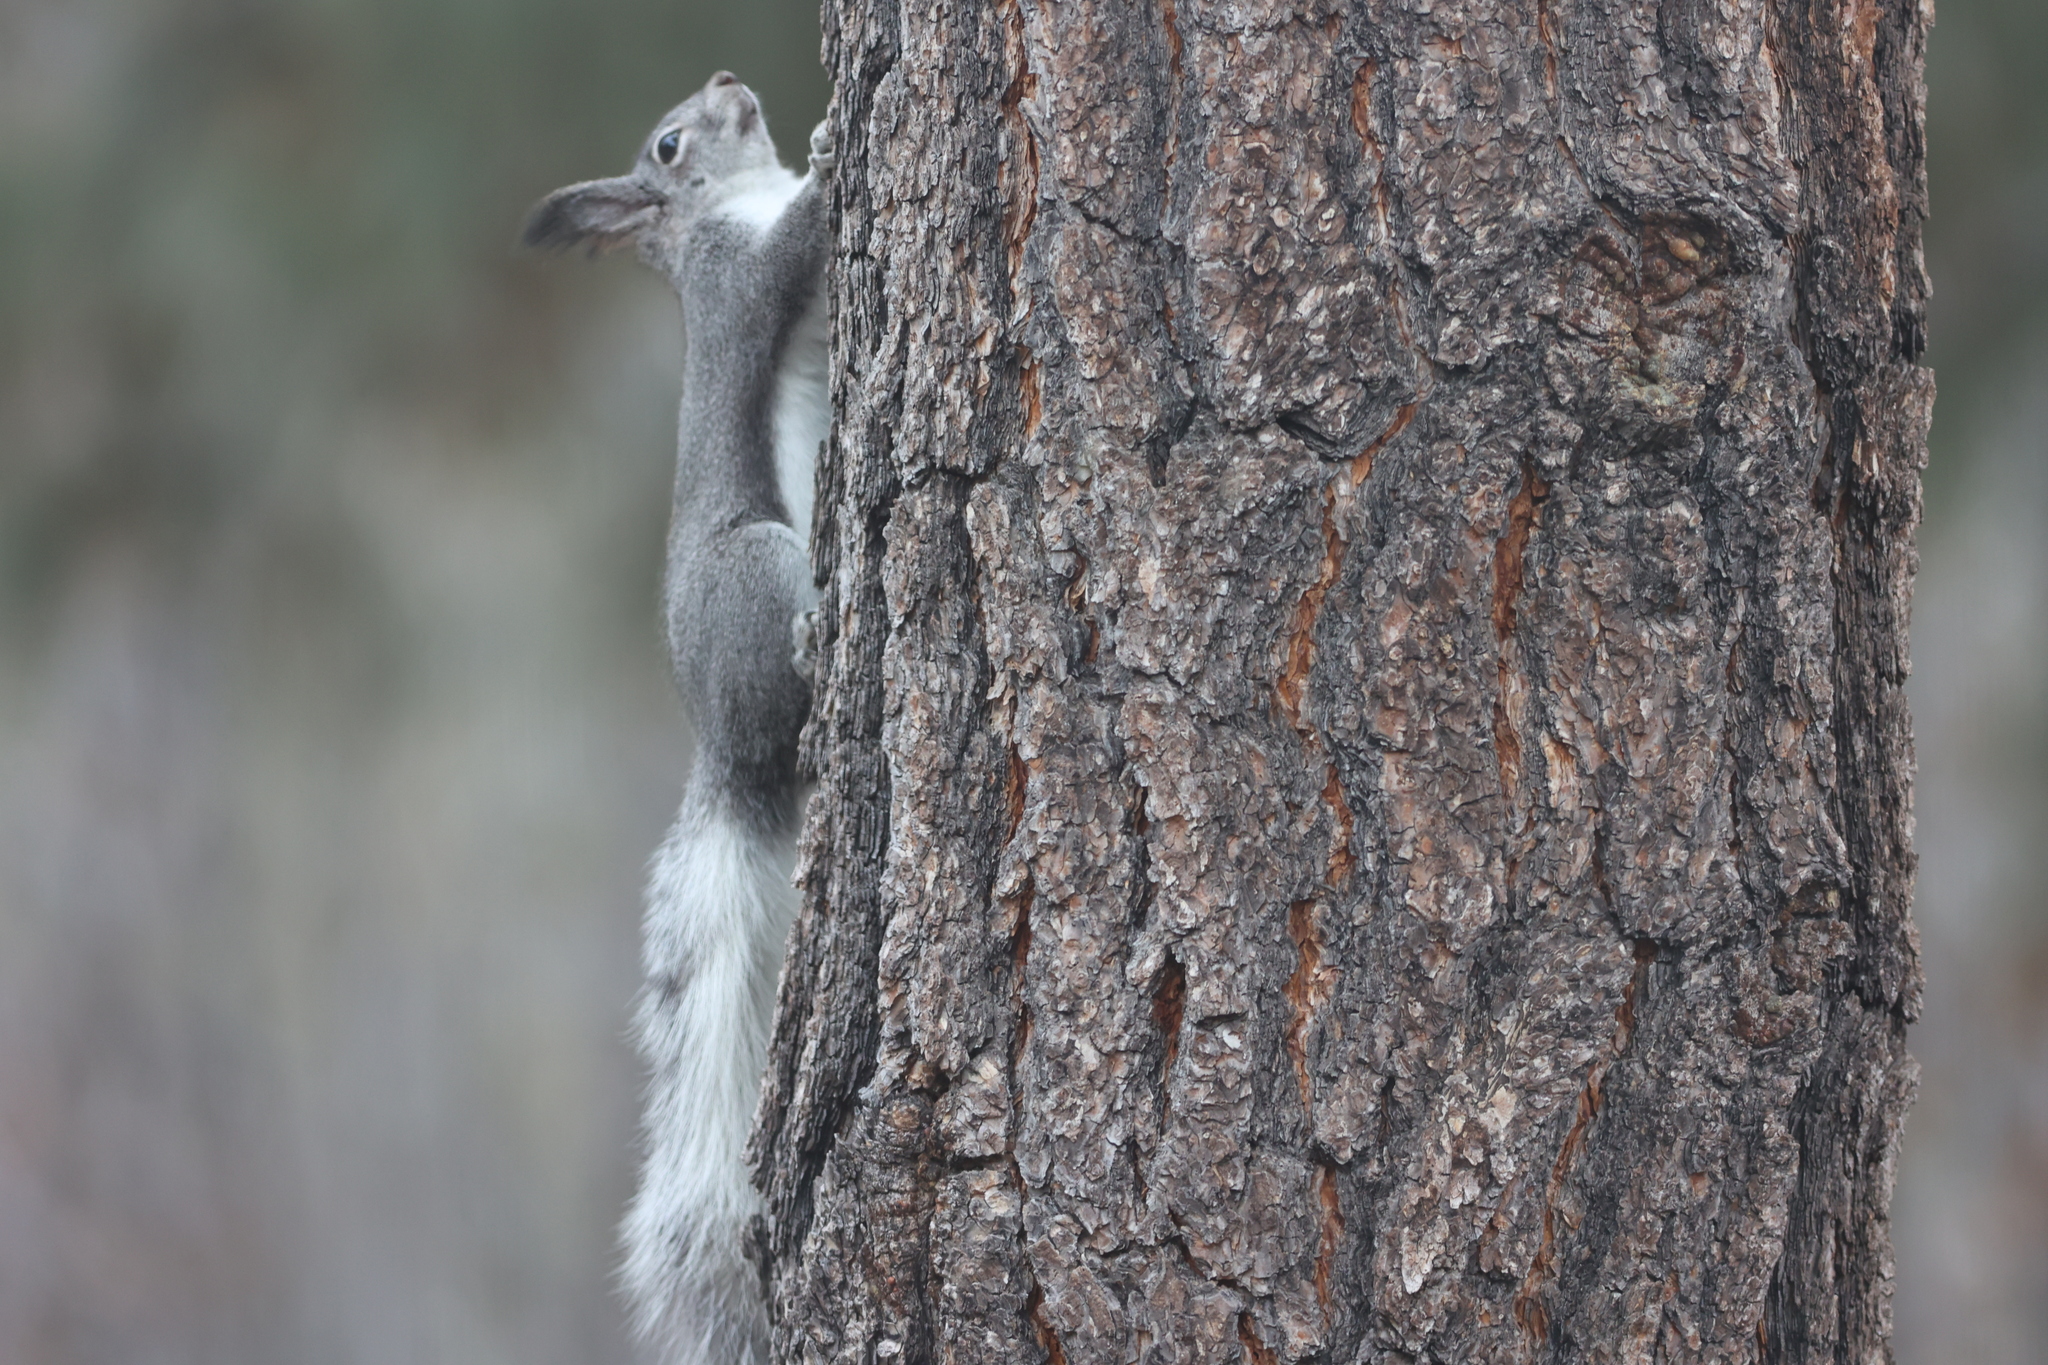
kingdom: Animalia
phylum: Chordata
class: Mammalia
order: Rodentia
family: Sciuridae
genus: Sciurus
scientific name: Sciurus aberti
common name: Abert's squirrel
